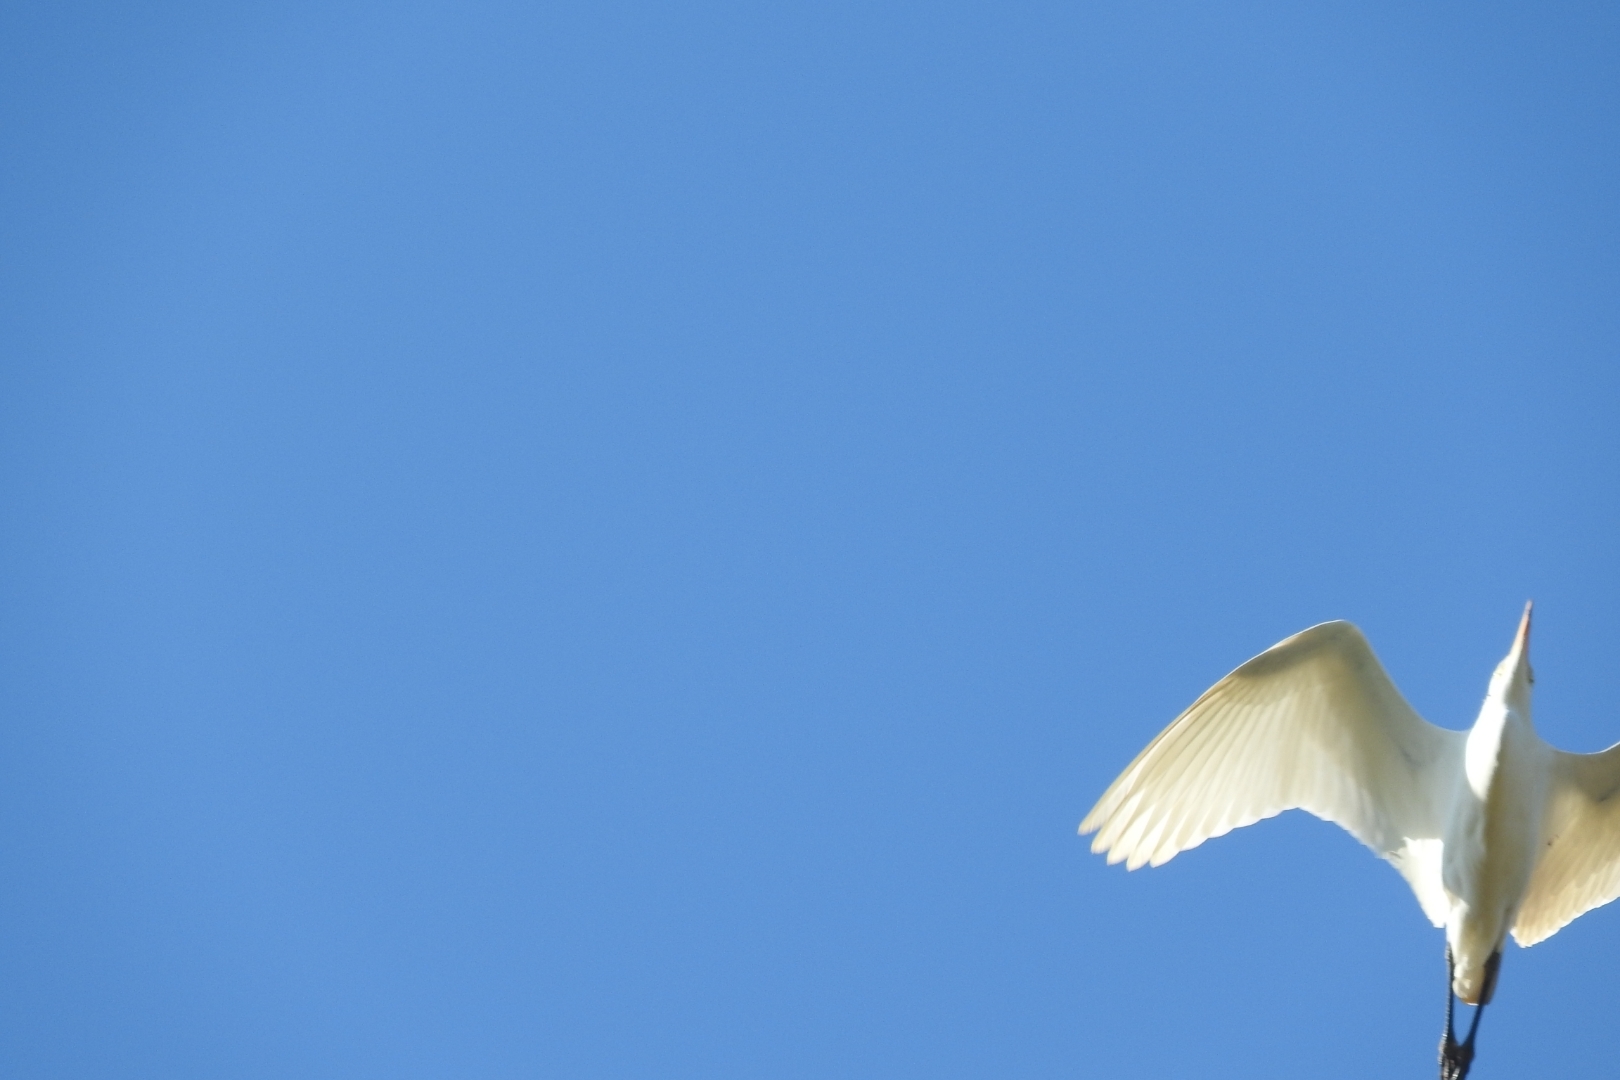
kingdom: Animalia
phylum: Chordata
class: Aves
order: Pelecaniformes
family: Ardeidae
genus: Bubulcus
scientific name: Bubulcus ibis
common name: Cattle egret
